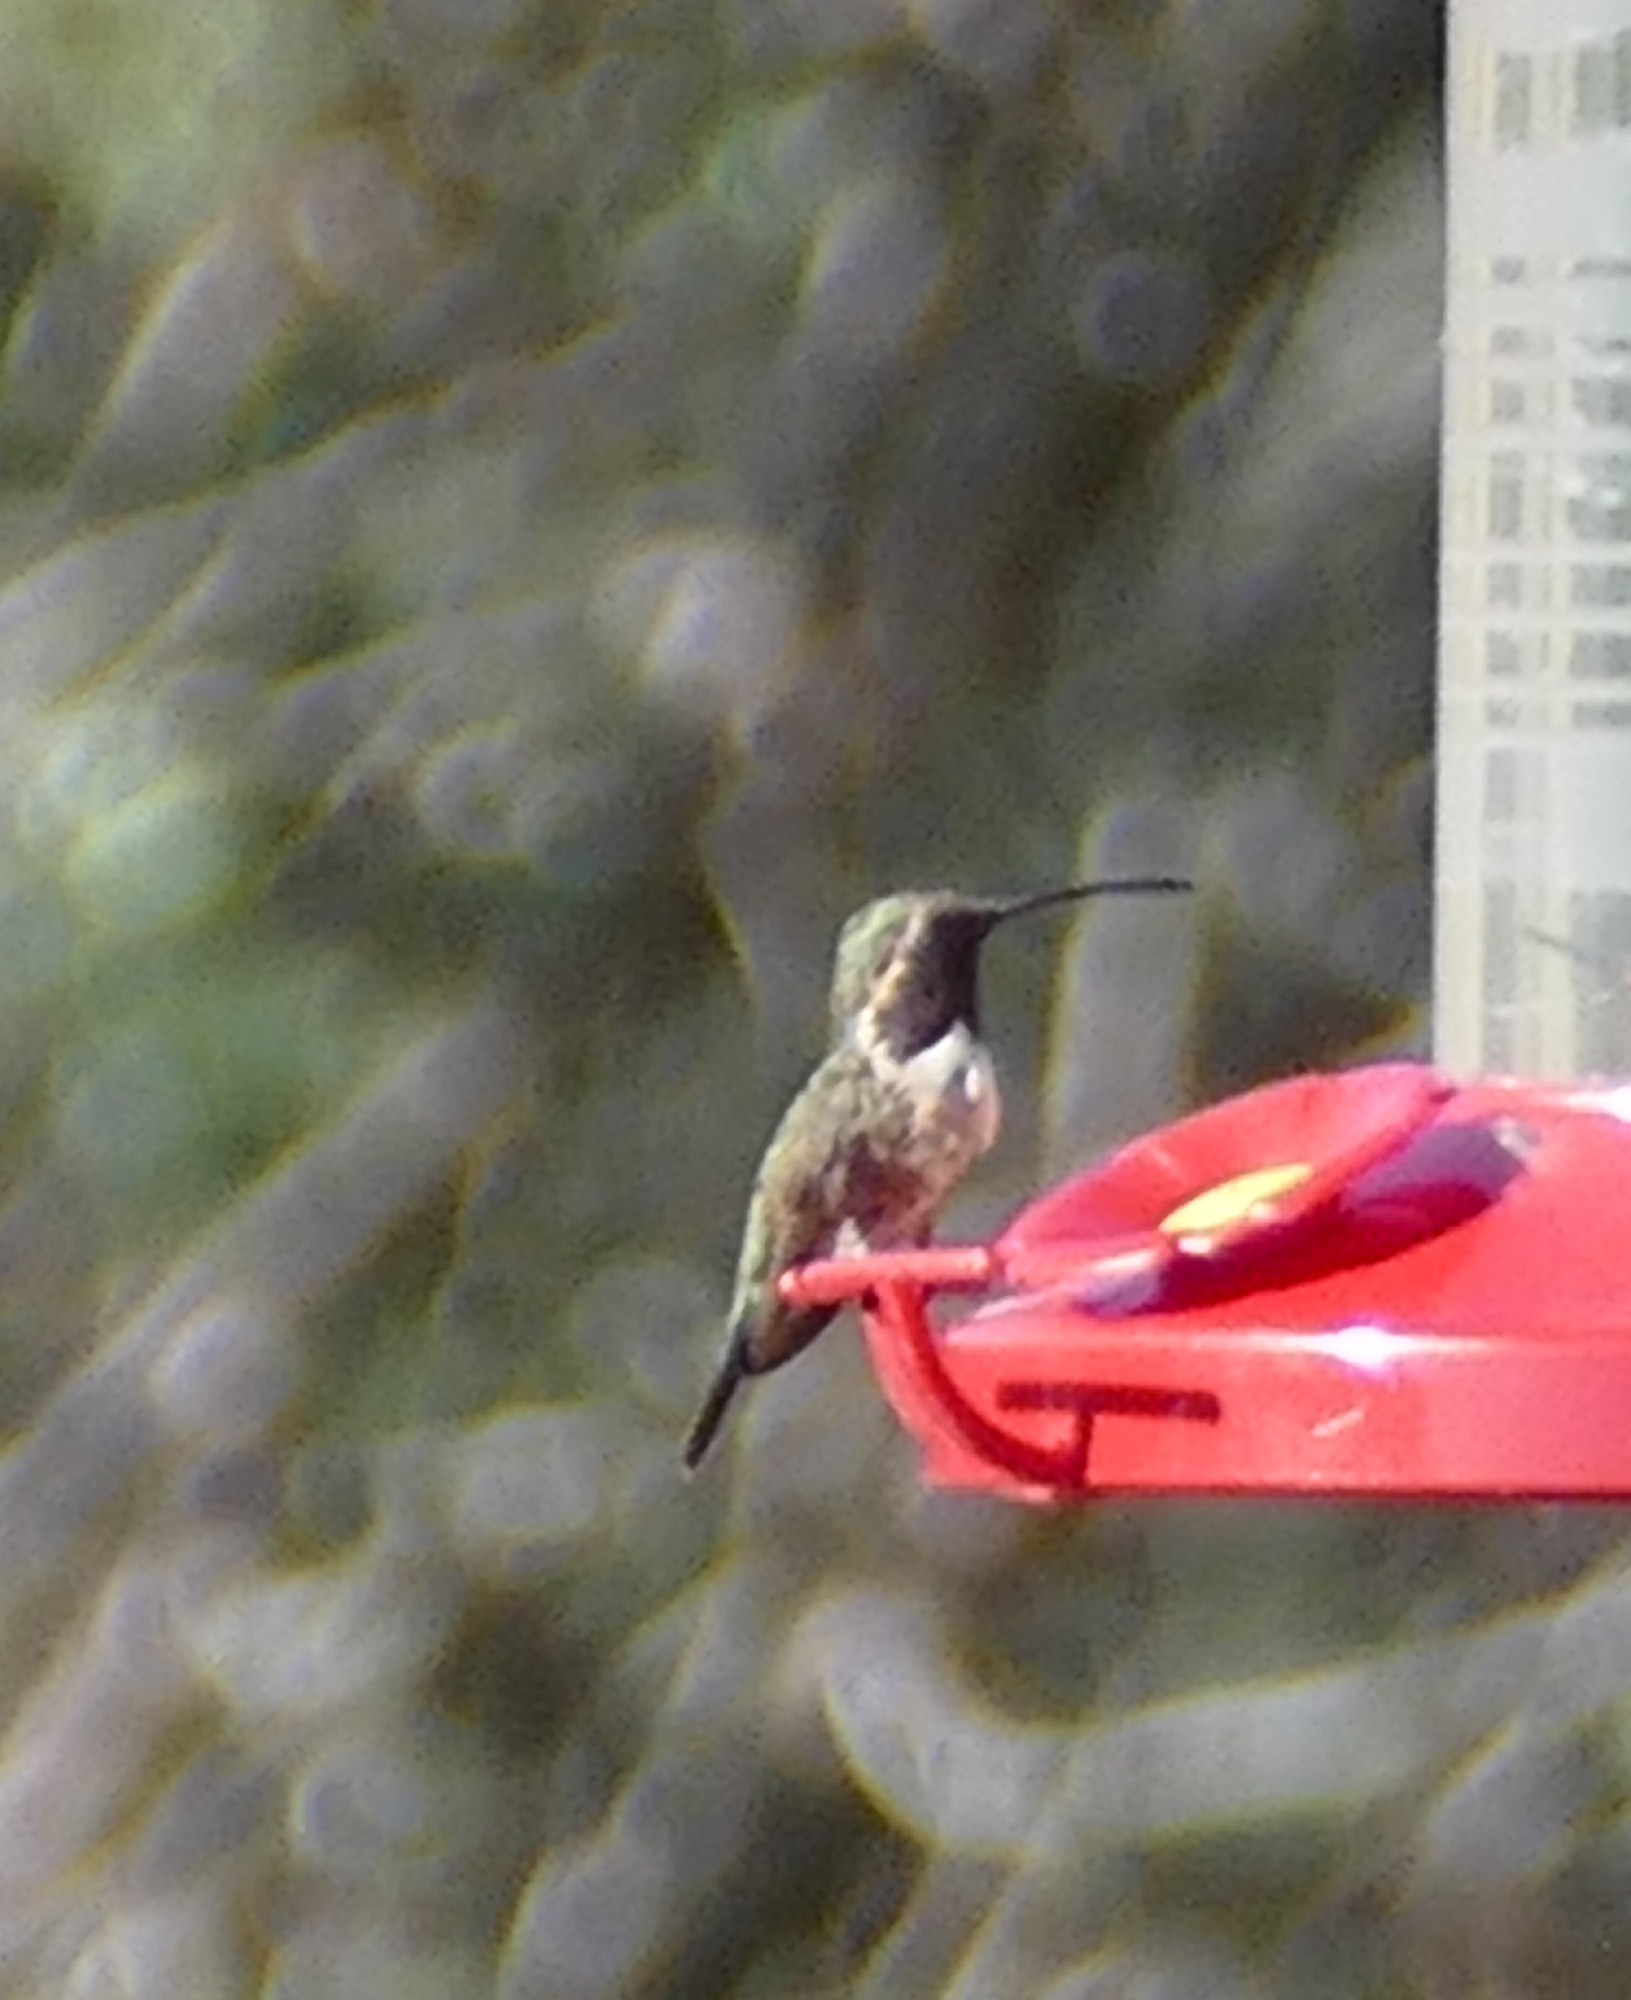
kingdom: Animalia
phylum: Chordata
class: Aves
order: Apodiformes
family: Trochilidae
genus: Calothorax
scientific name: Calothorax lucifer
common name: Lucifer sheartail
